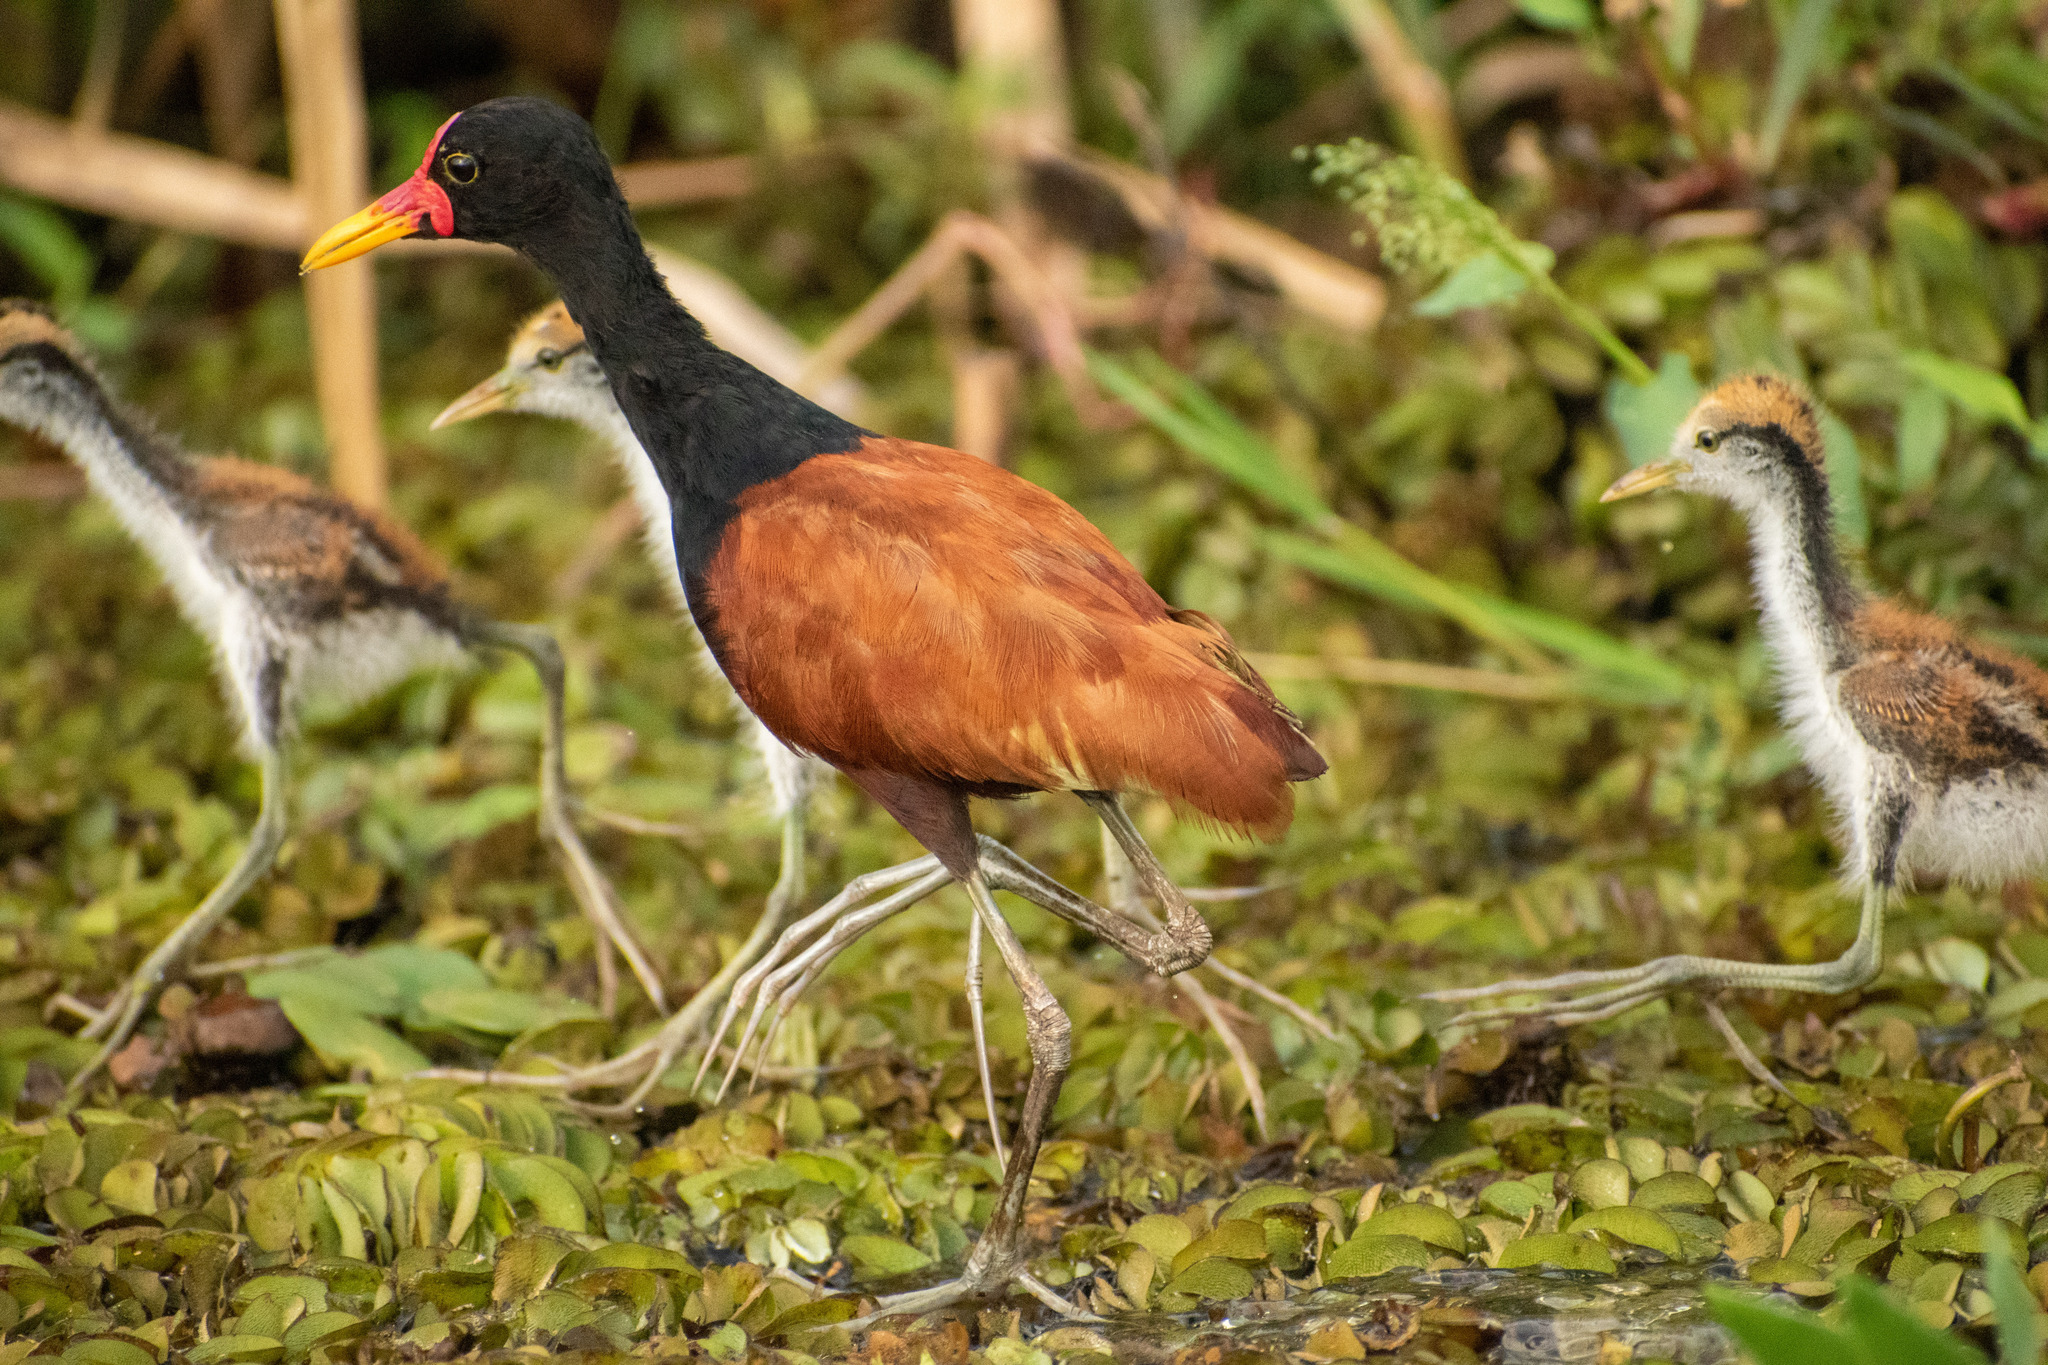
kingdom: Animalia
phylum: Chordata
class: Aves
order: Charadriiformes
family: Jacanidae
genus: Jacana
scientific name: Jacana jacana
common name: Wattled jacana
